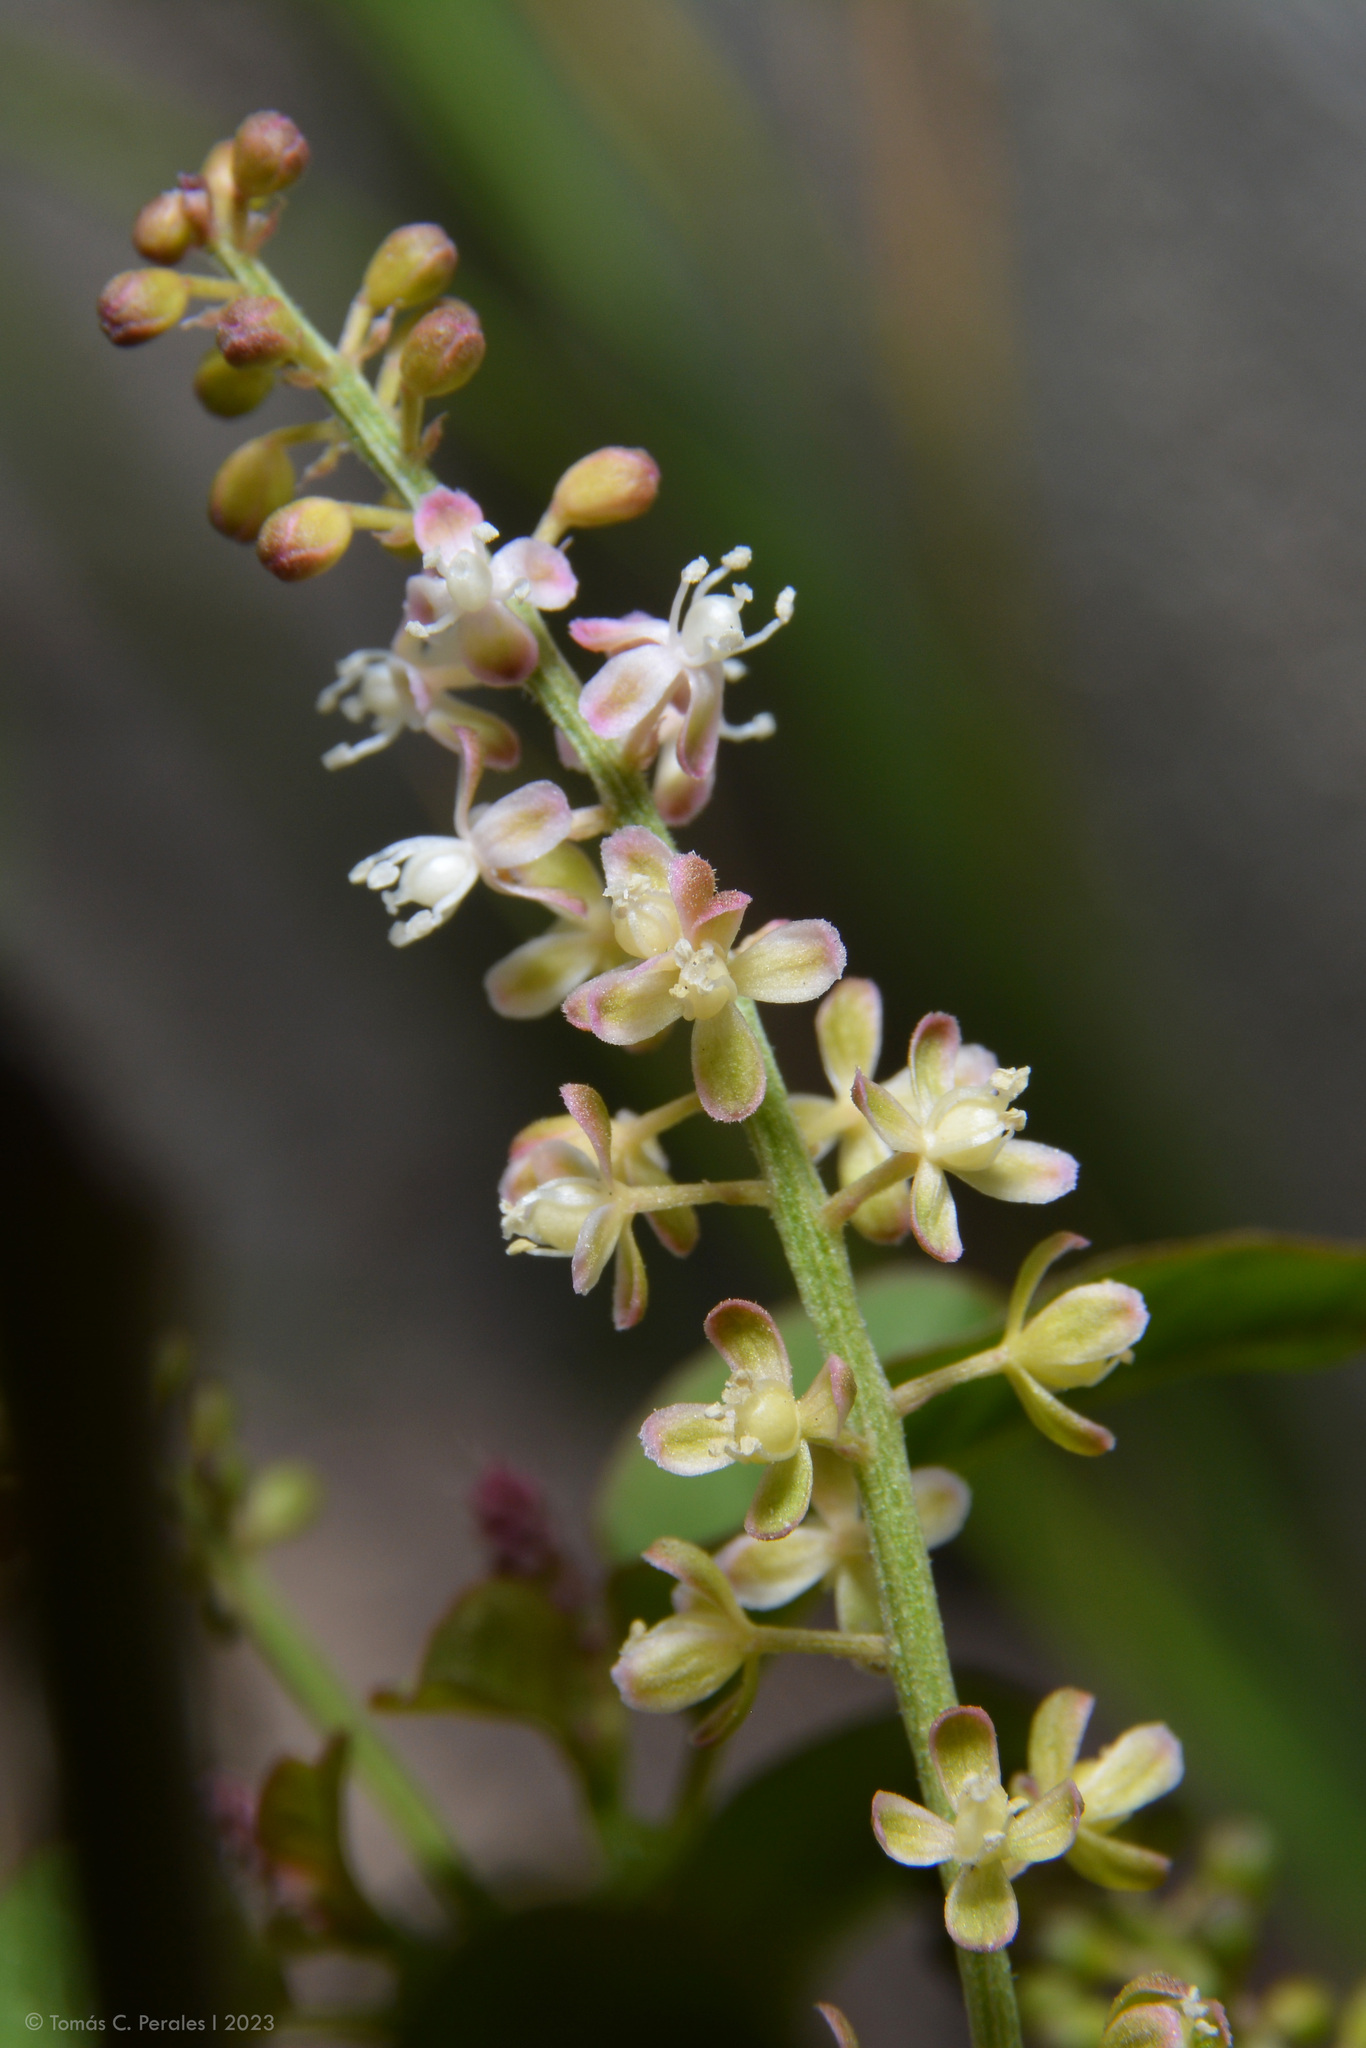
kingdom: Plantae
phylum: Tracheophyta
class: Magnoliopsida
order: Caryophyllales
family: Phytolaccaceae
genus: Rivina
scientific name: Rivina humilis
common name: Rougeplant
